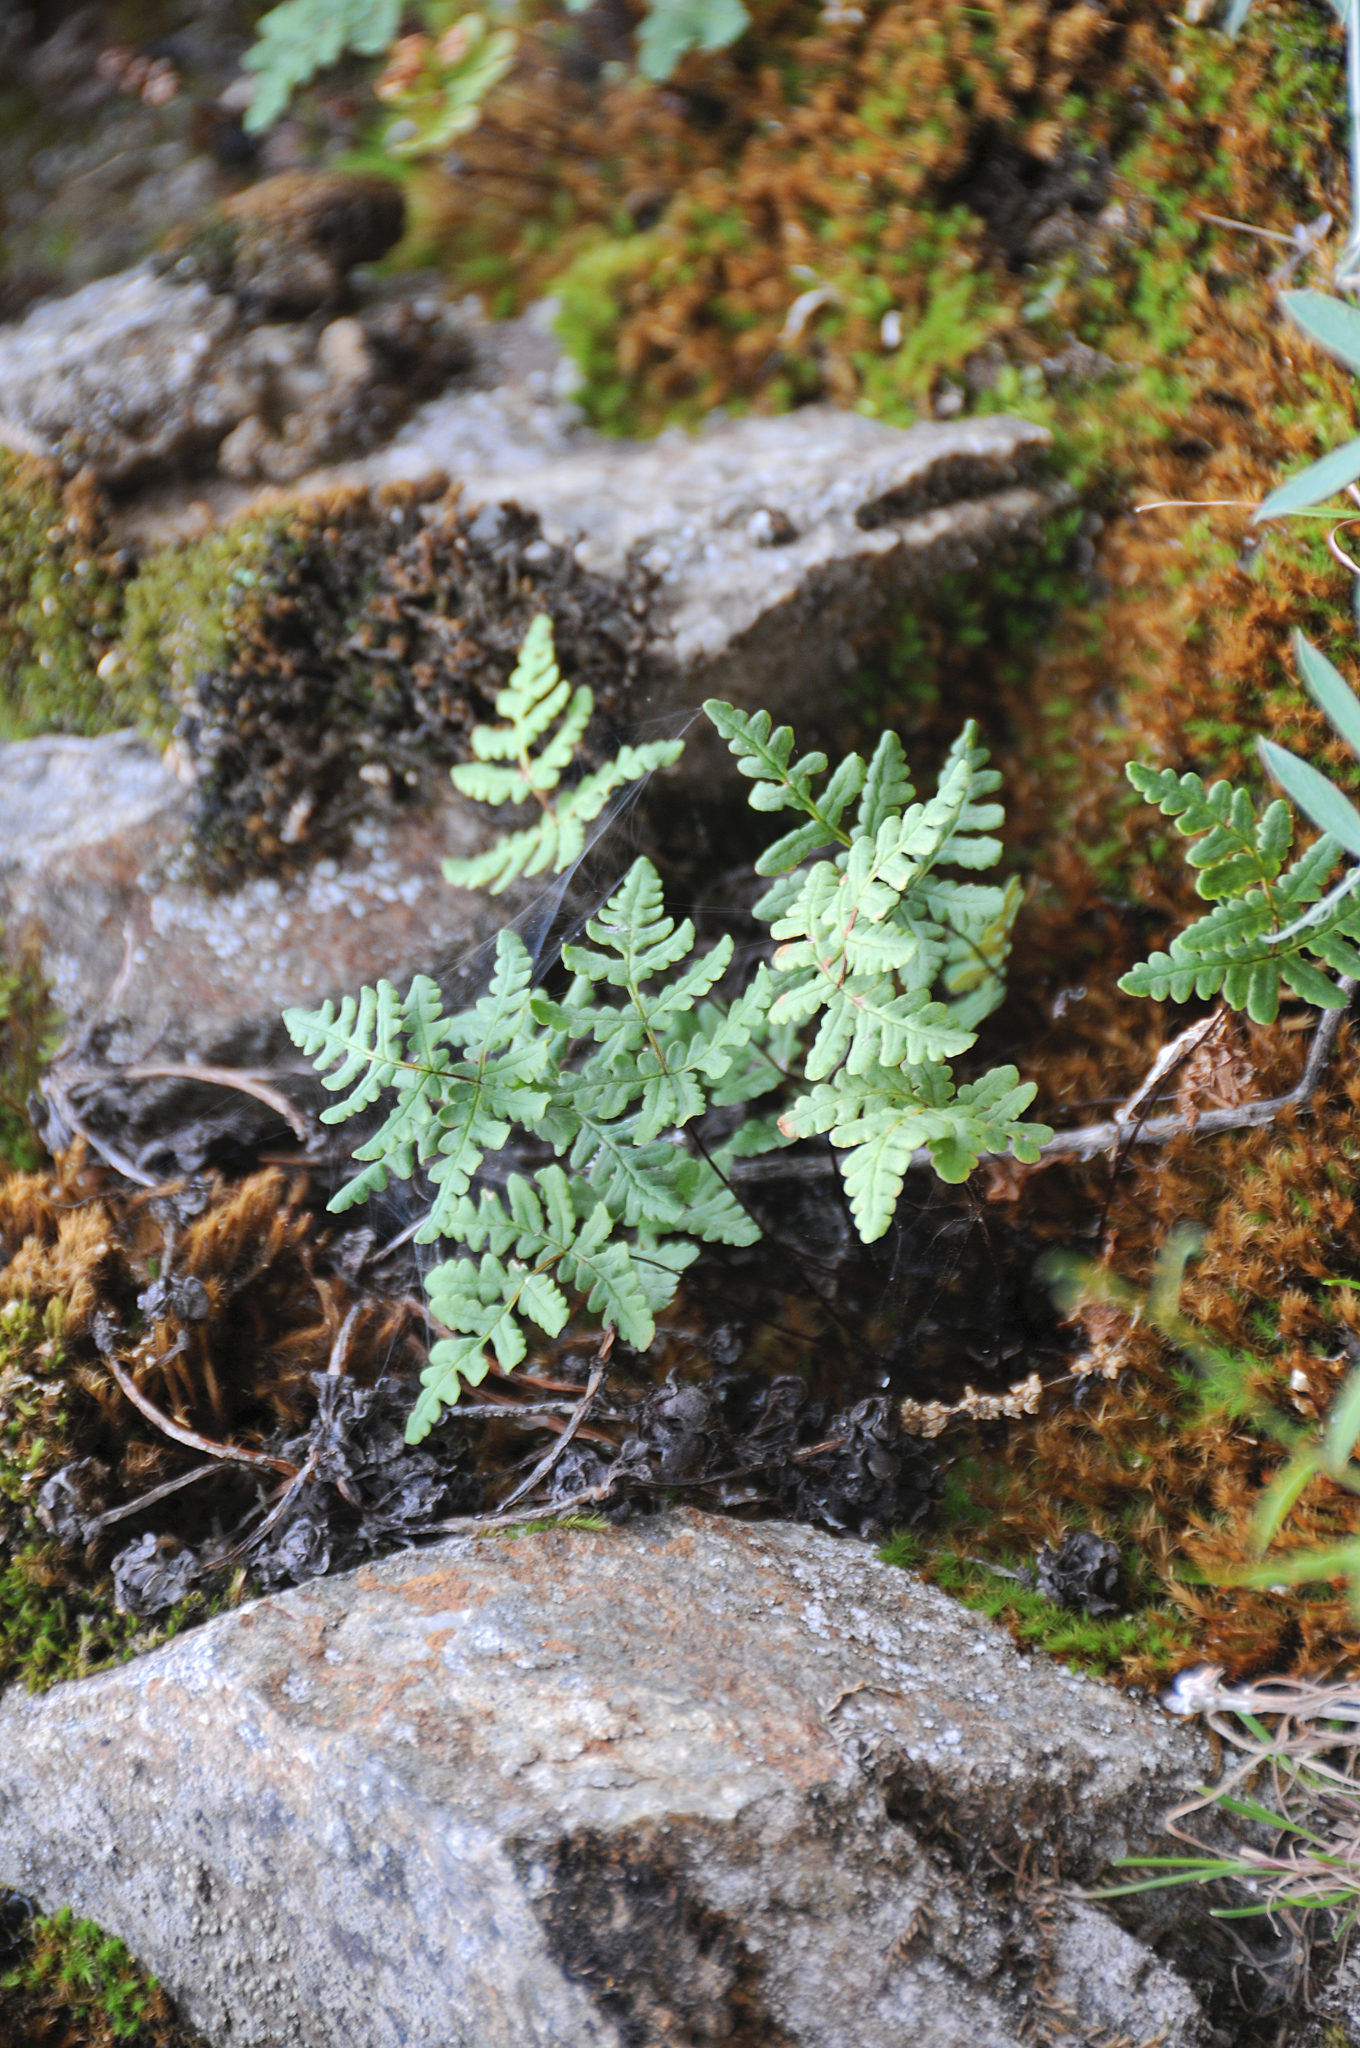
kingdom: Plantae
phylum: Tracheophyta
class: Polypodiopsida
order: Polypodiales
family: Pteridaceae
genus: Pentagramma
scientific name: Pentagramma triangularis
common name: Gold fern
